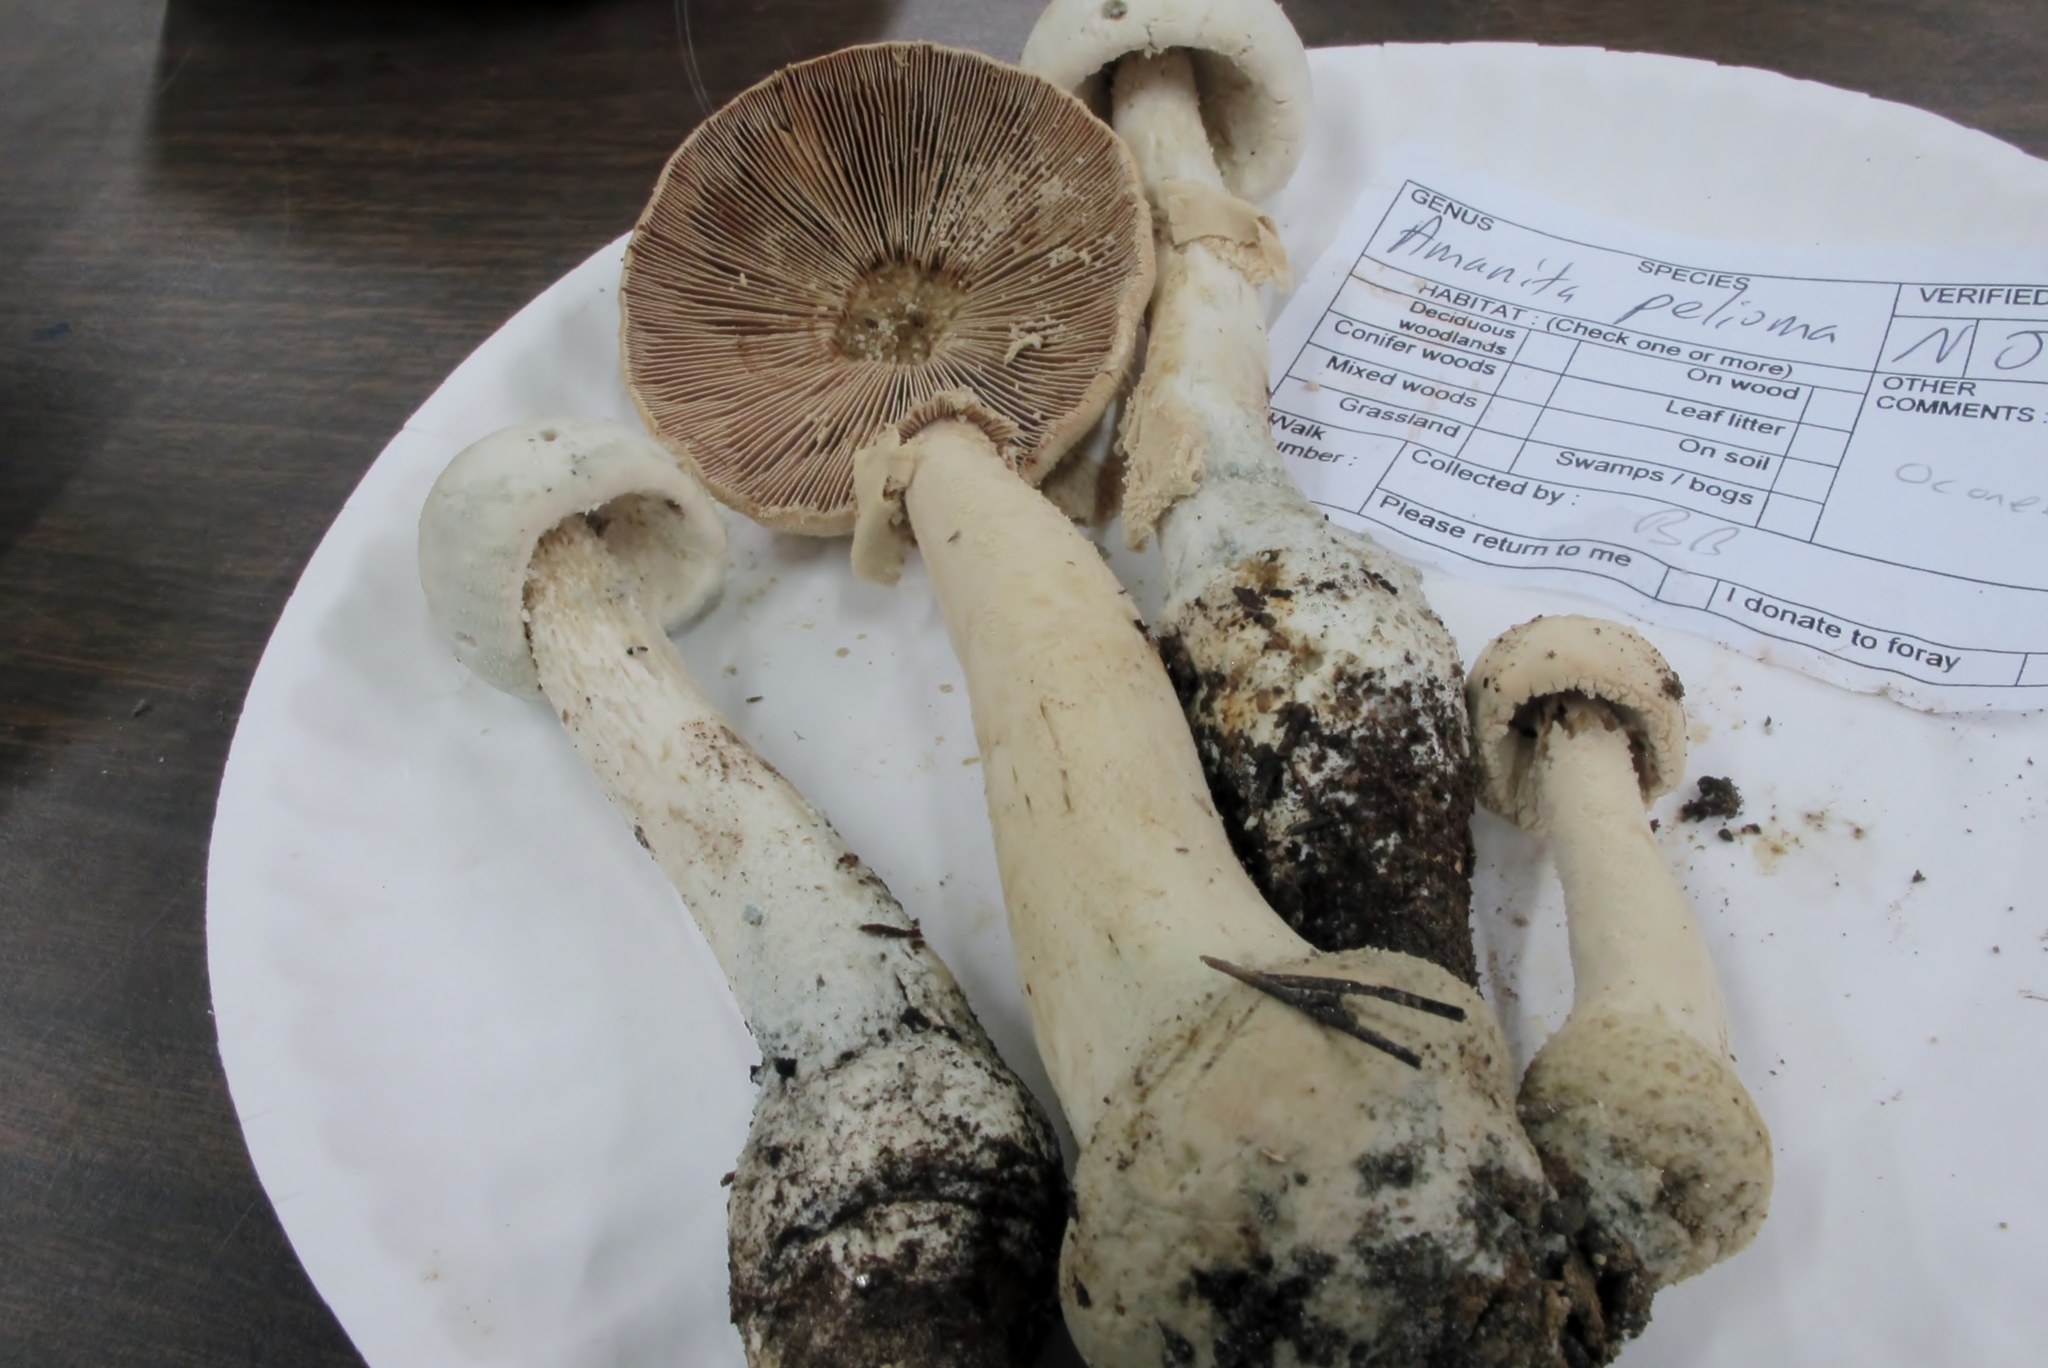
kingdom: Fungi
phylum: Basidiomycota
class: Agaricomycetes
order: Agaricales
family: Amanitaceae
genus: Amanita
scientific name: Amanita pelioma
